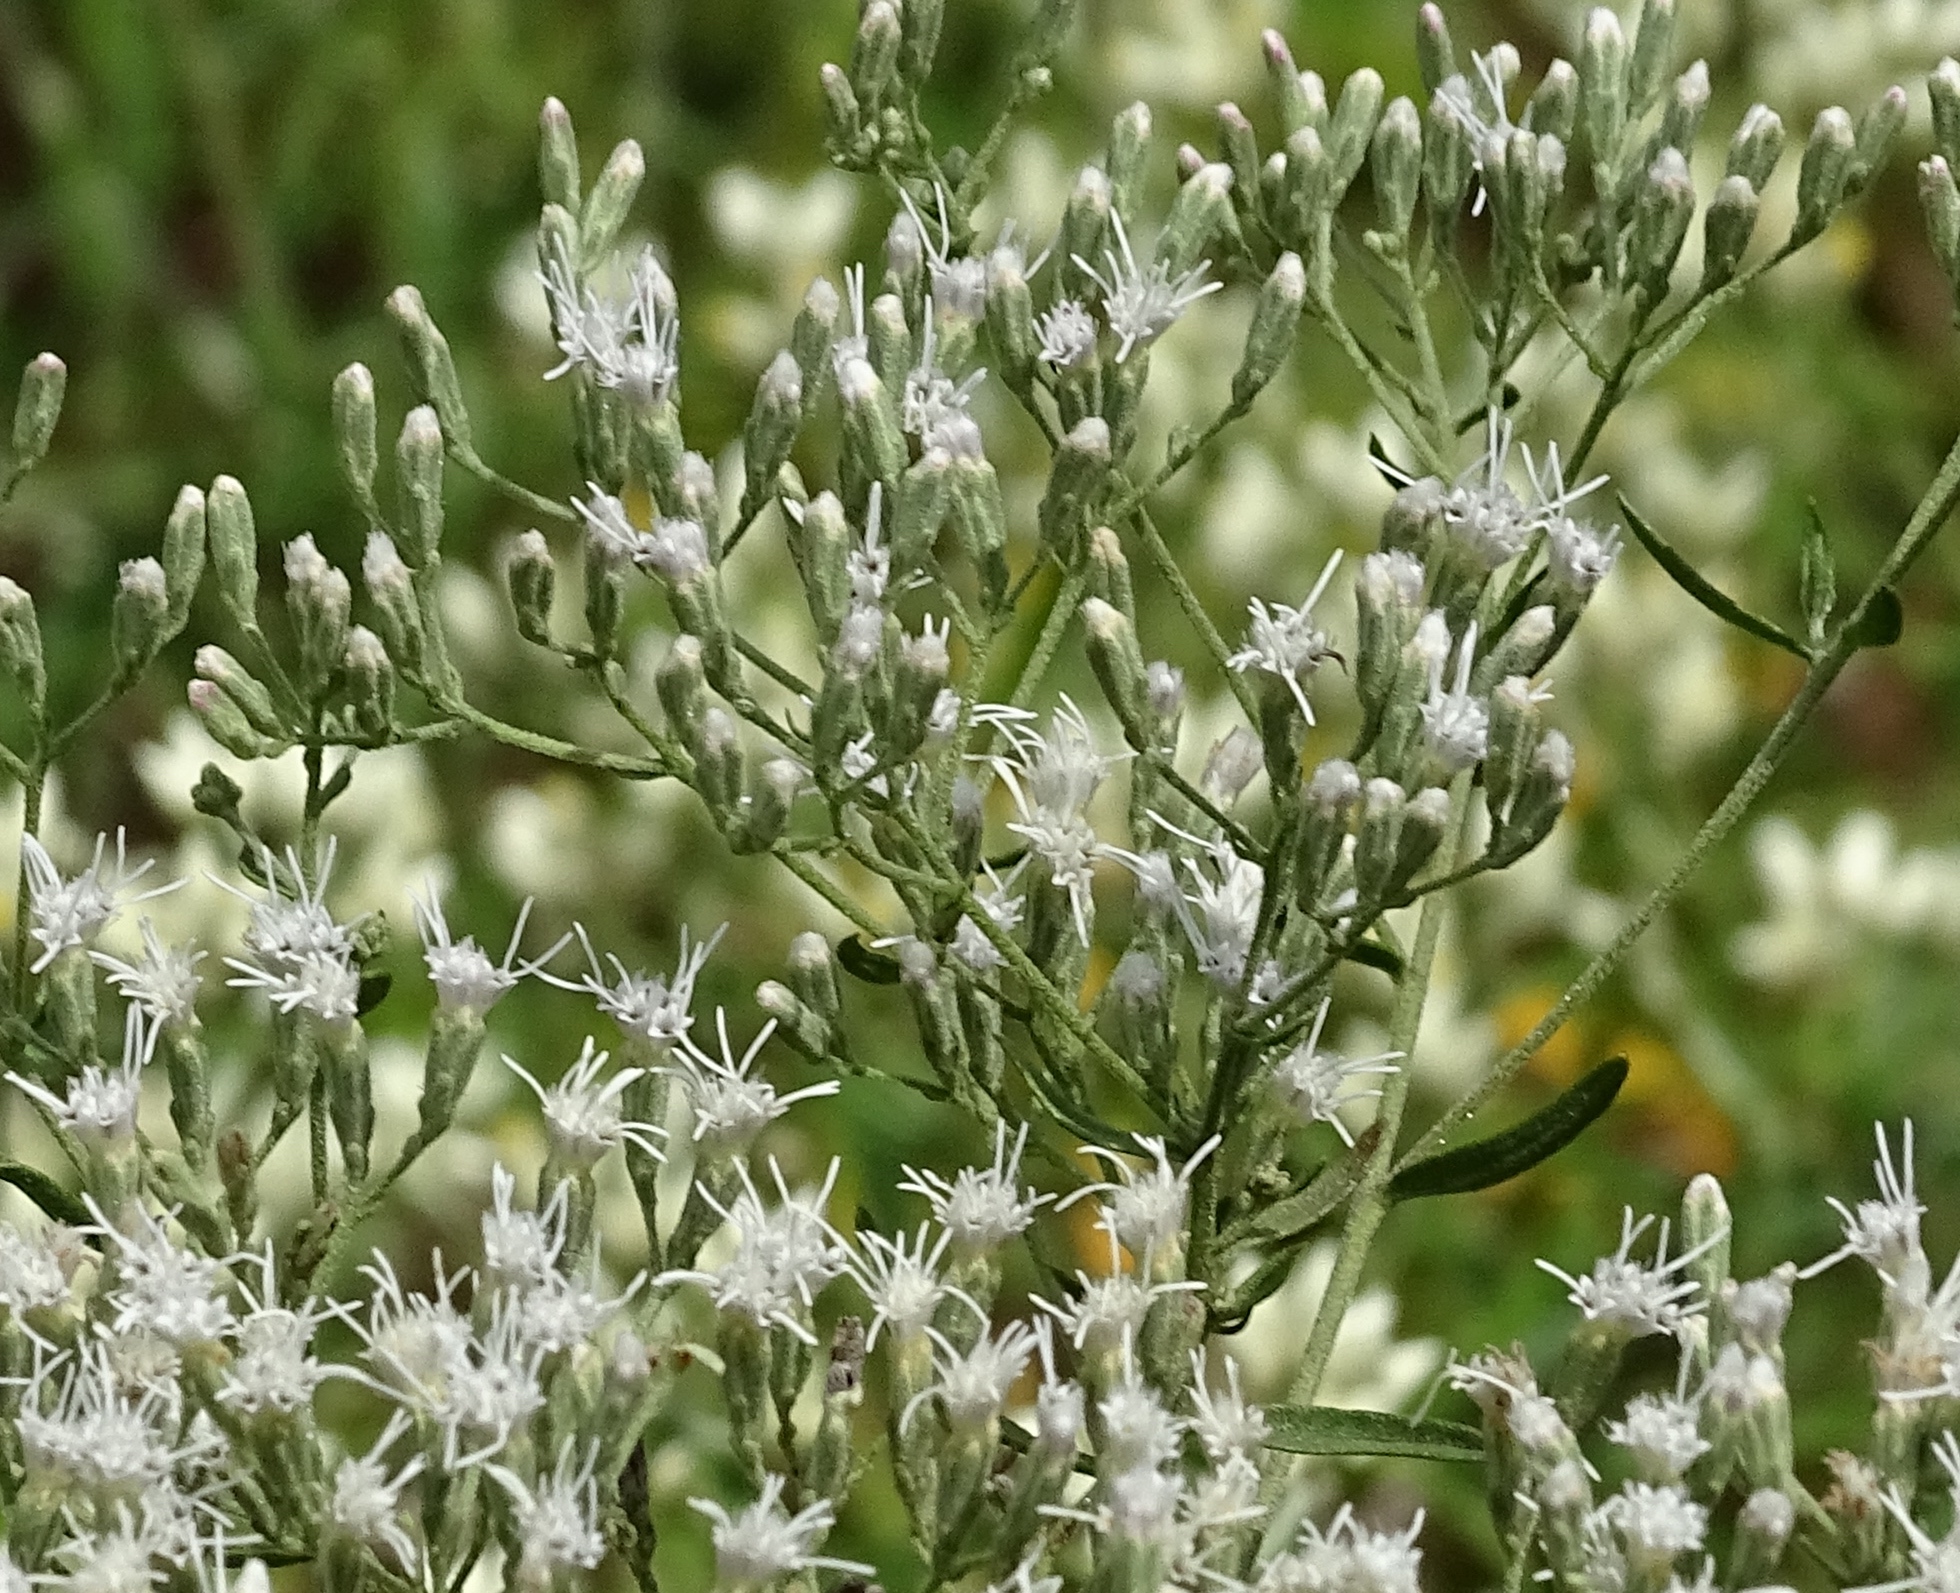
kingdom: Plantae
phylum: Tracheophyta
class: Magnoliopsida
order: Asterales
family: Asteraceae
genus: Eupatorium
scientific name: Eupatorium torreyanum
